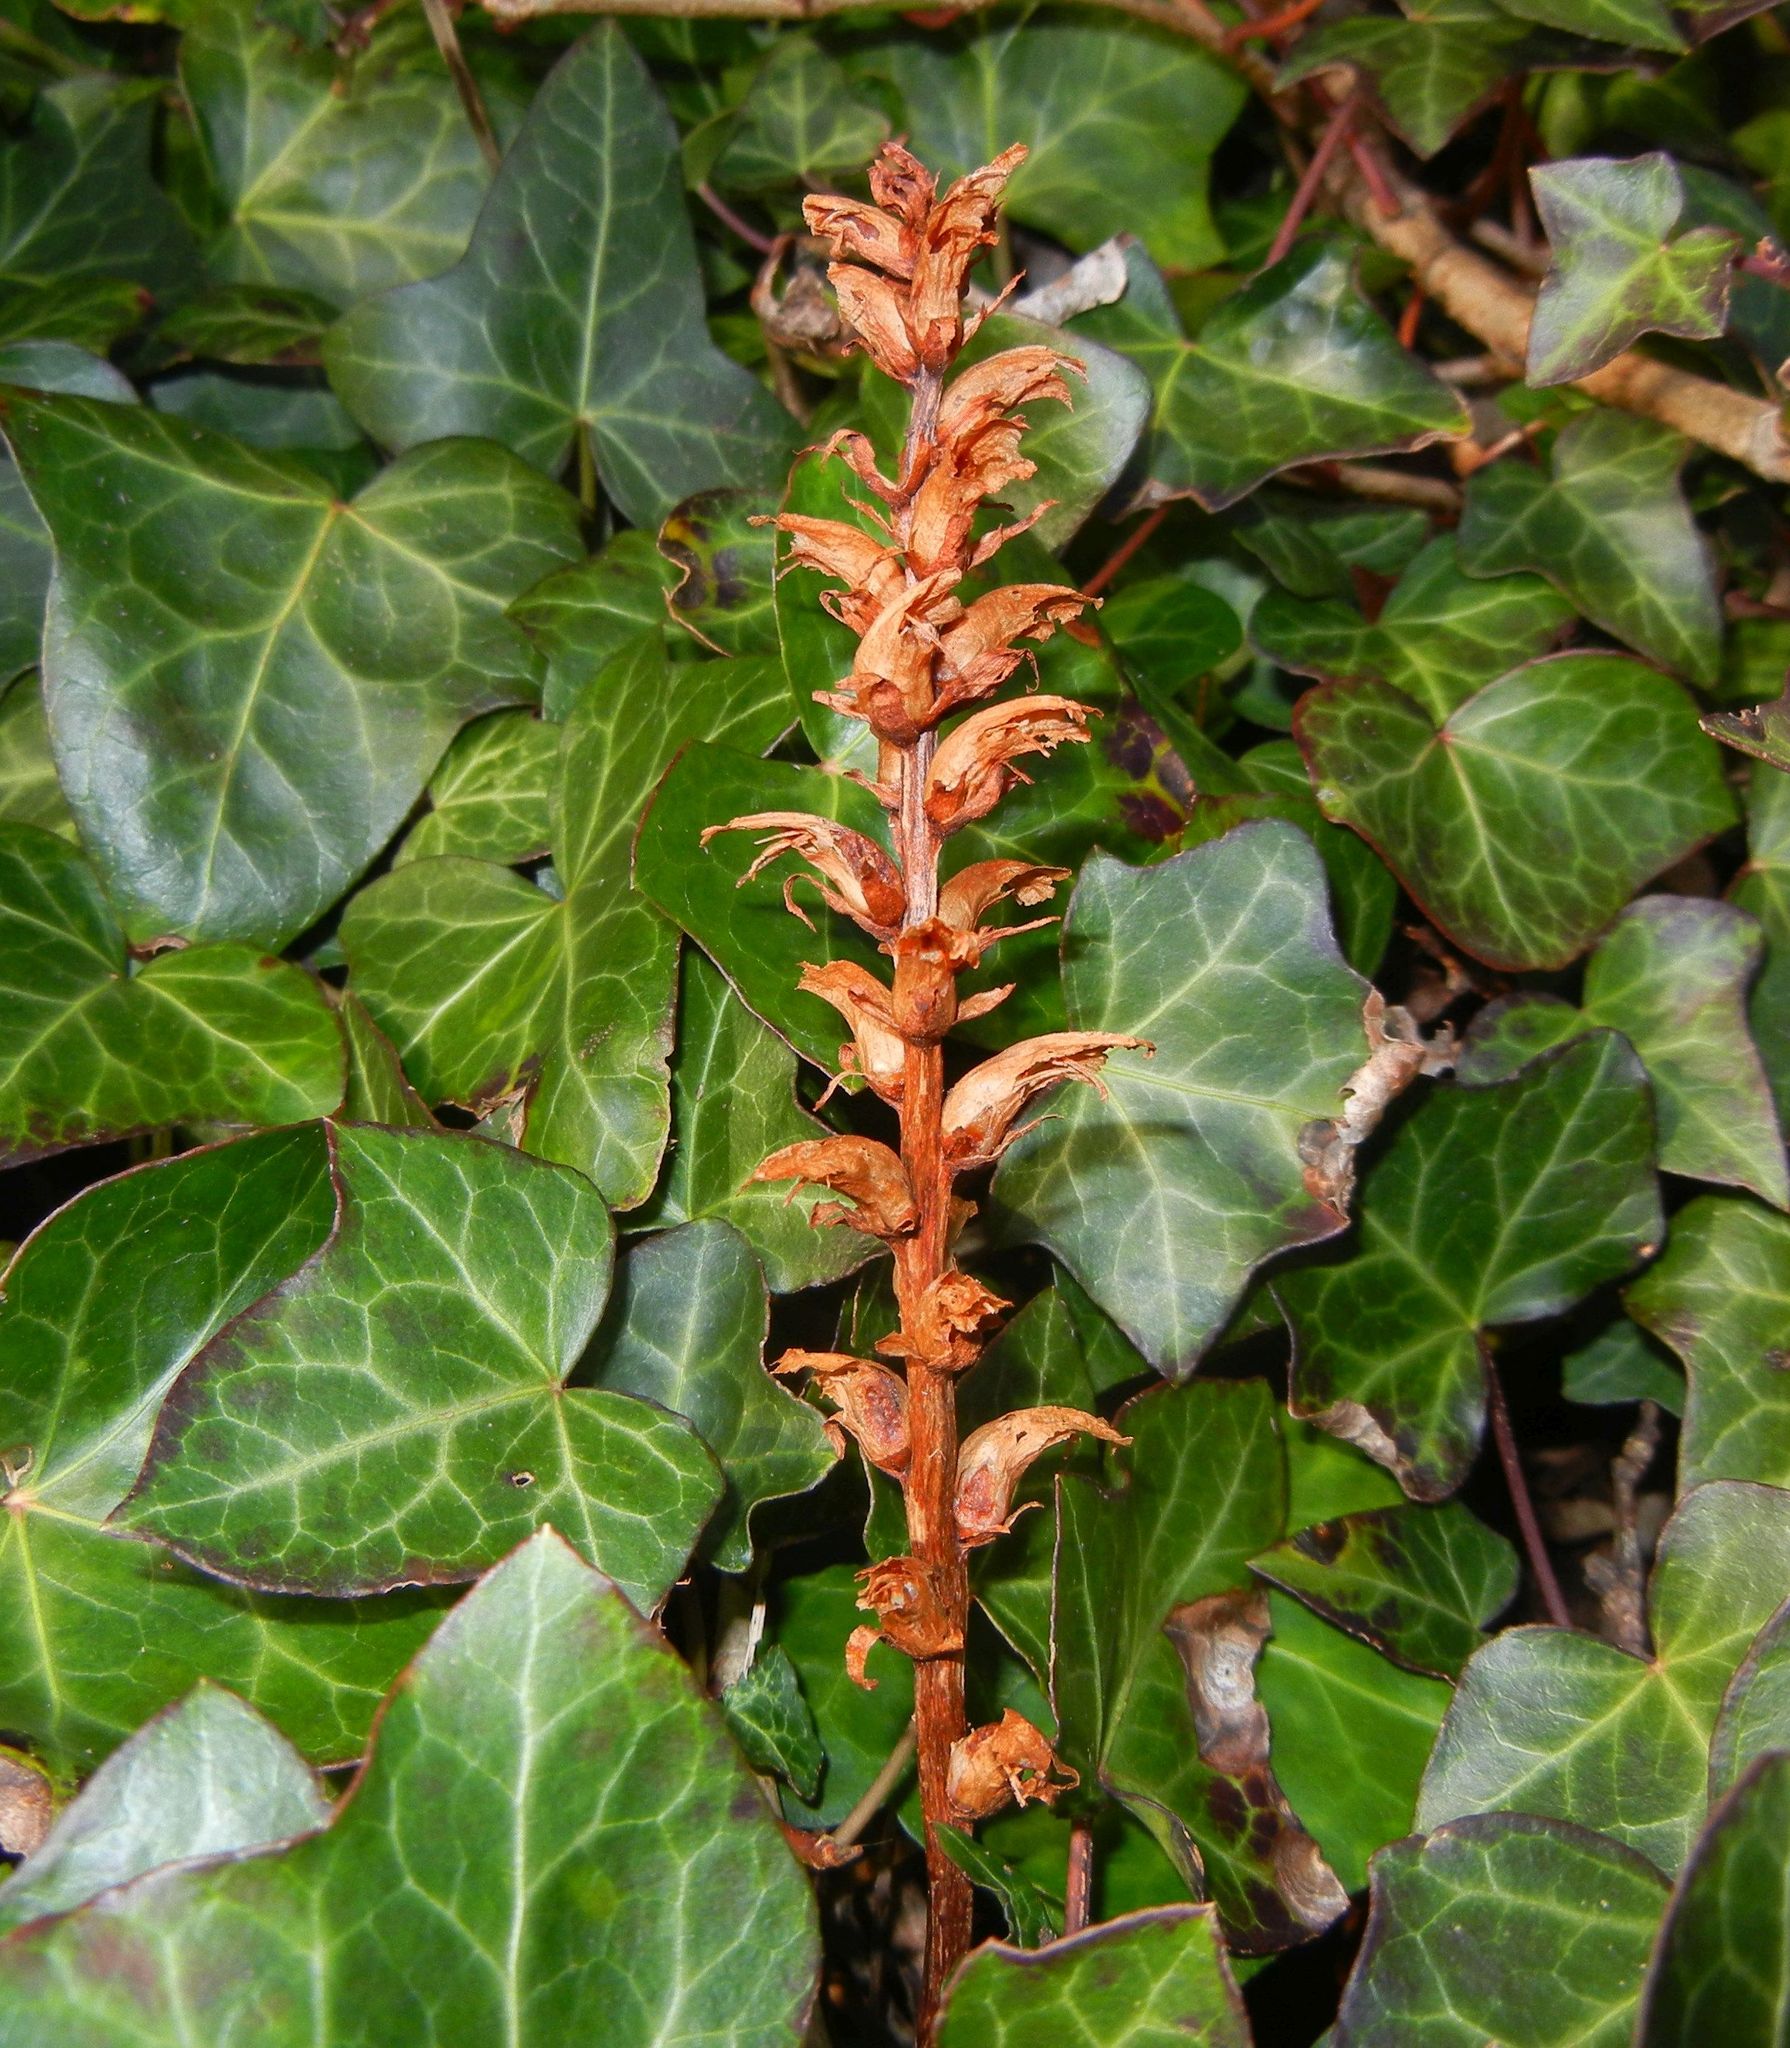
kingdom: Plantae
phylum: Tracheophyta
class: Magnoliopsida
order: Lamiales
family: Orobanchaceae
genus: Orobanche
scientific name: Orobanche hederae
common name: Ivy broomrape
